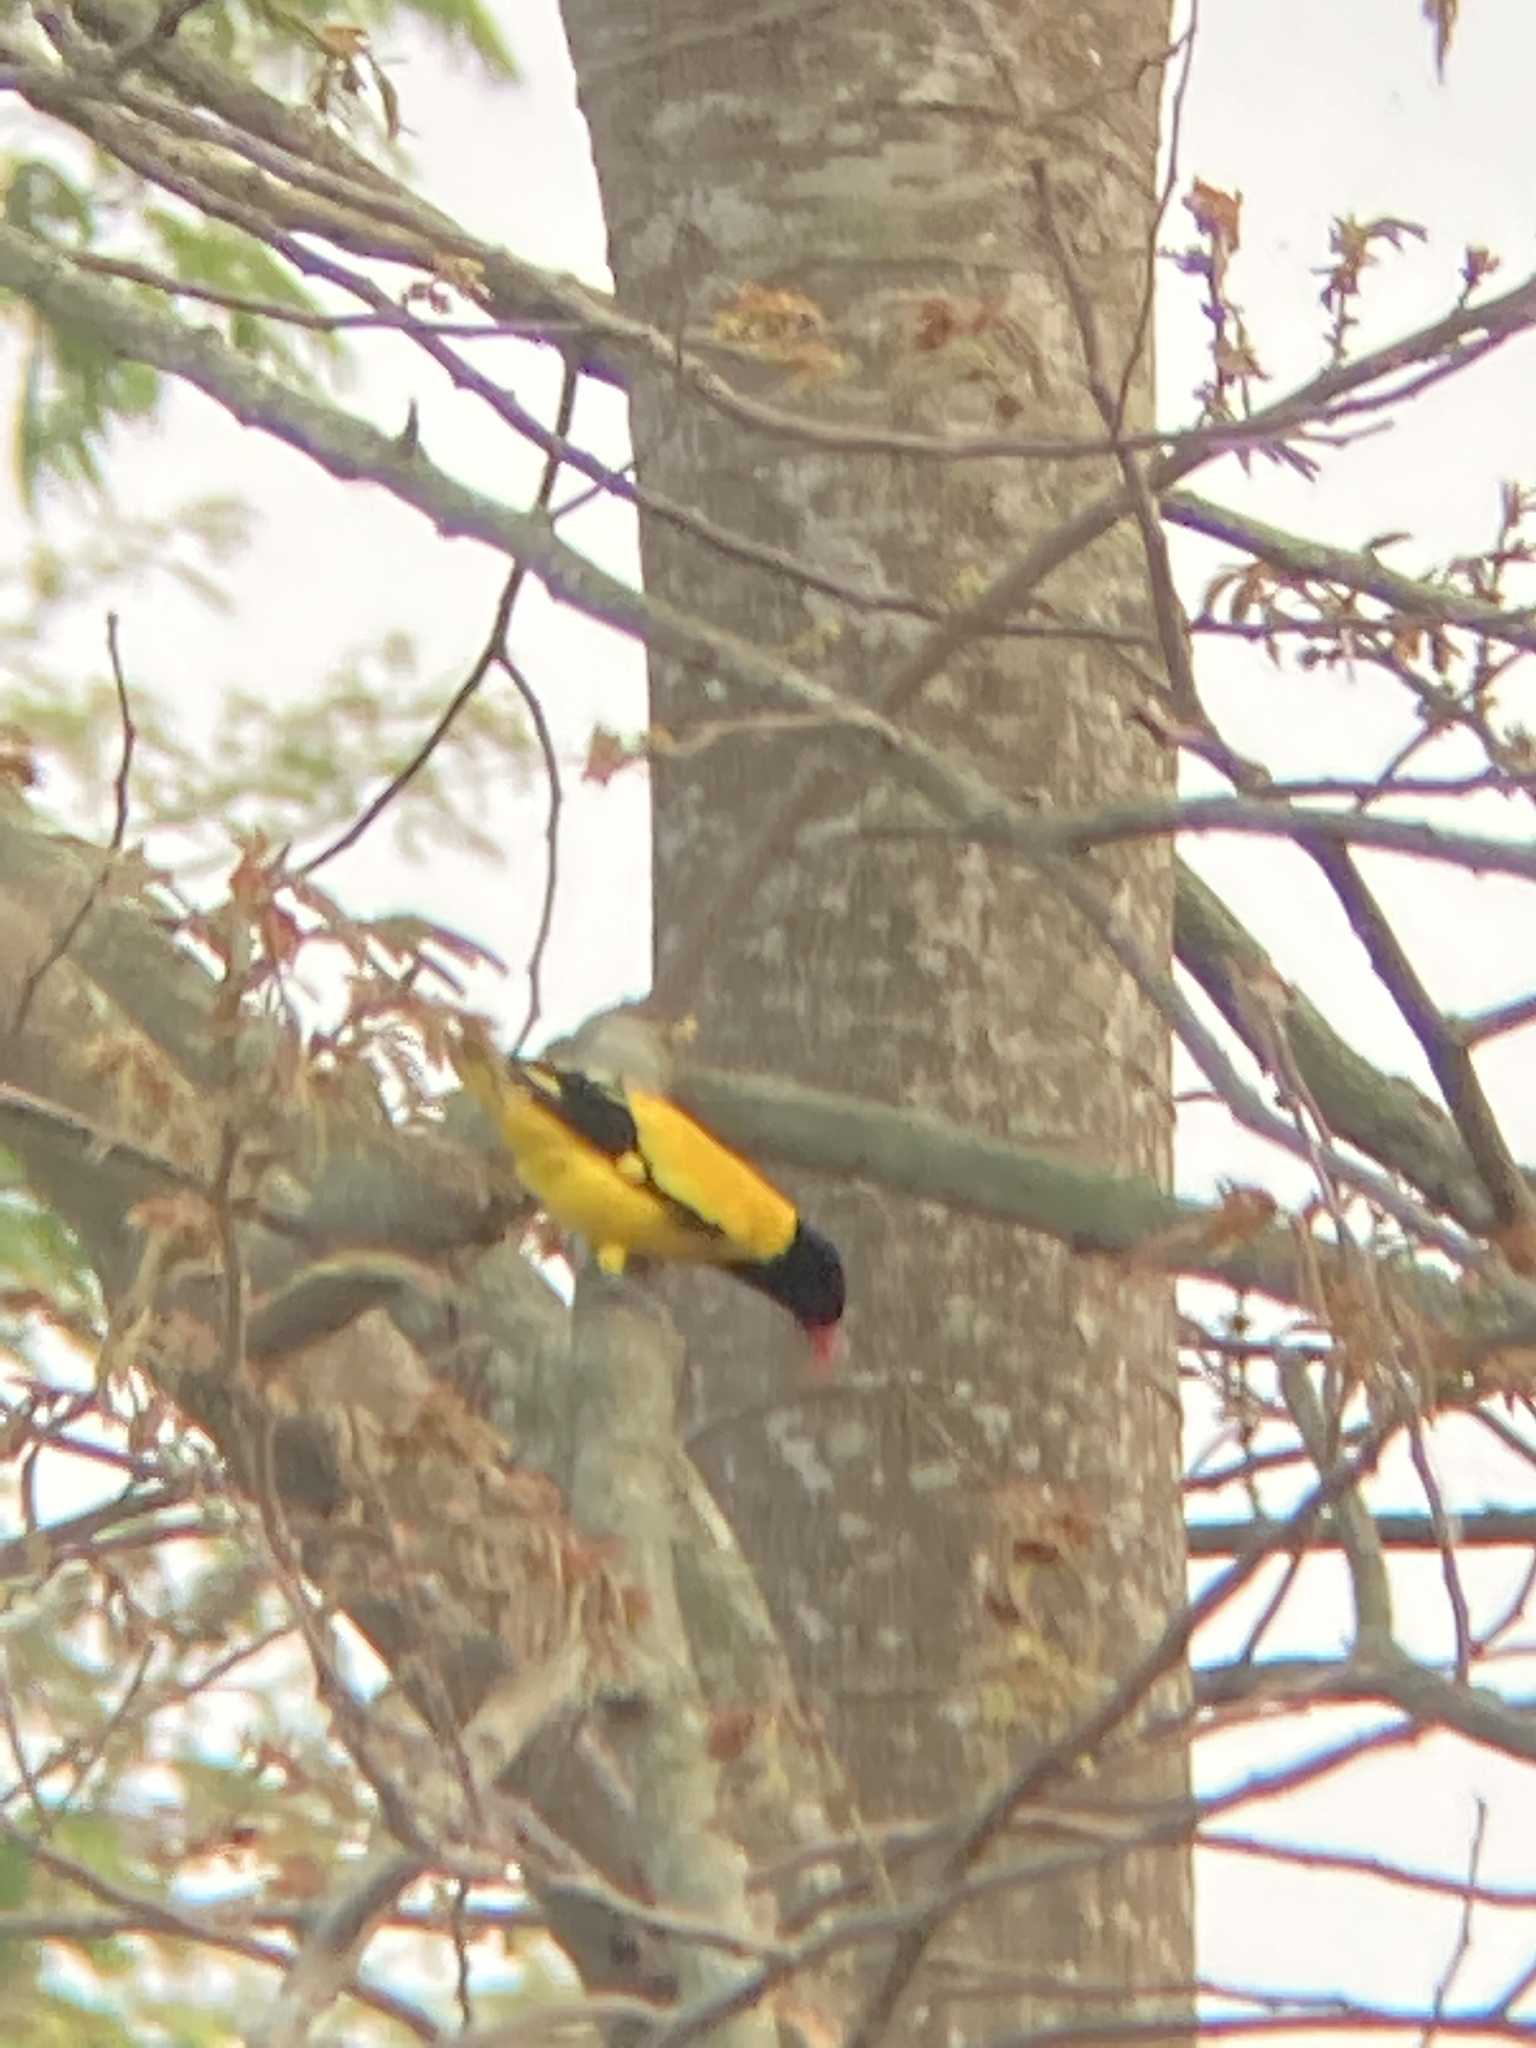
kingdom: Animalia
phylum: Chordata
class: Aves
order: Passeriformes
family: Oriolidae
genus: Oriolus
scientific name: Oriolus xanthornus
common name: Black-hooded oriole
